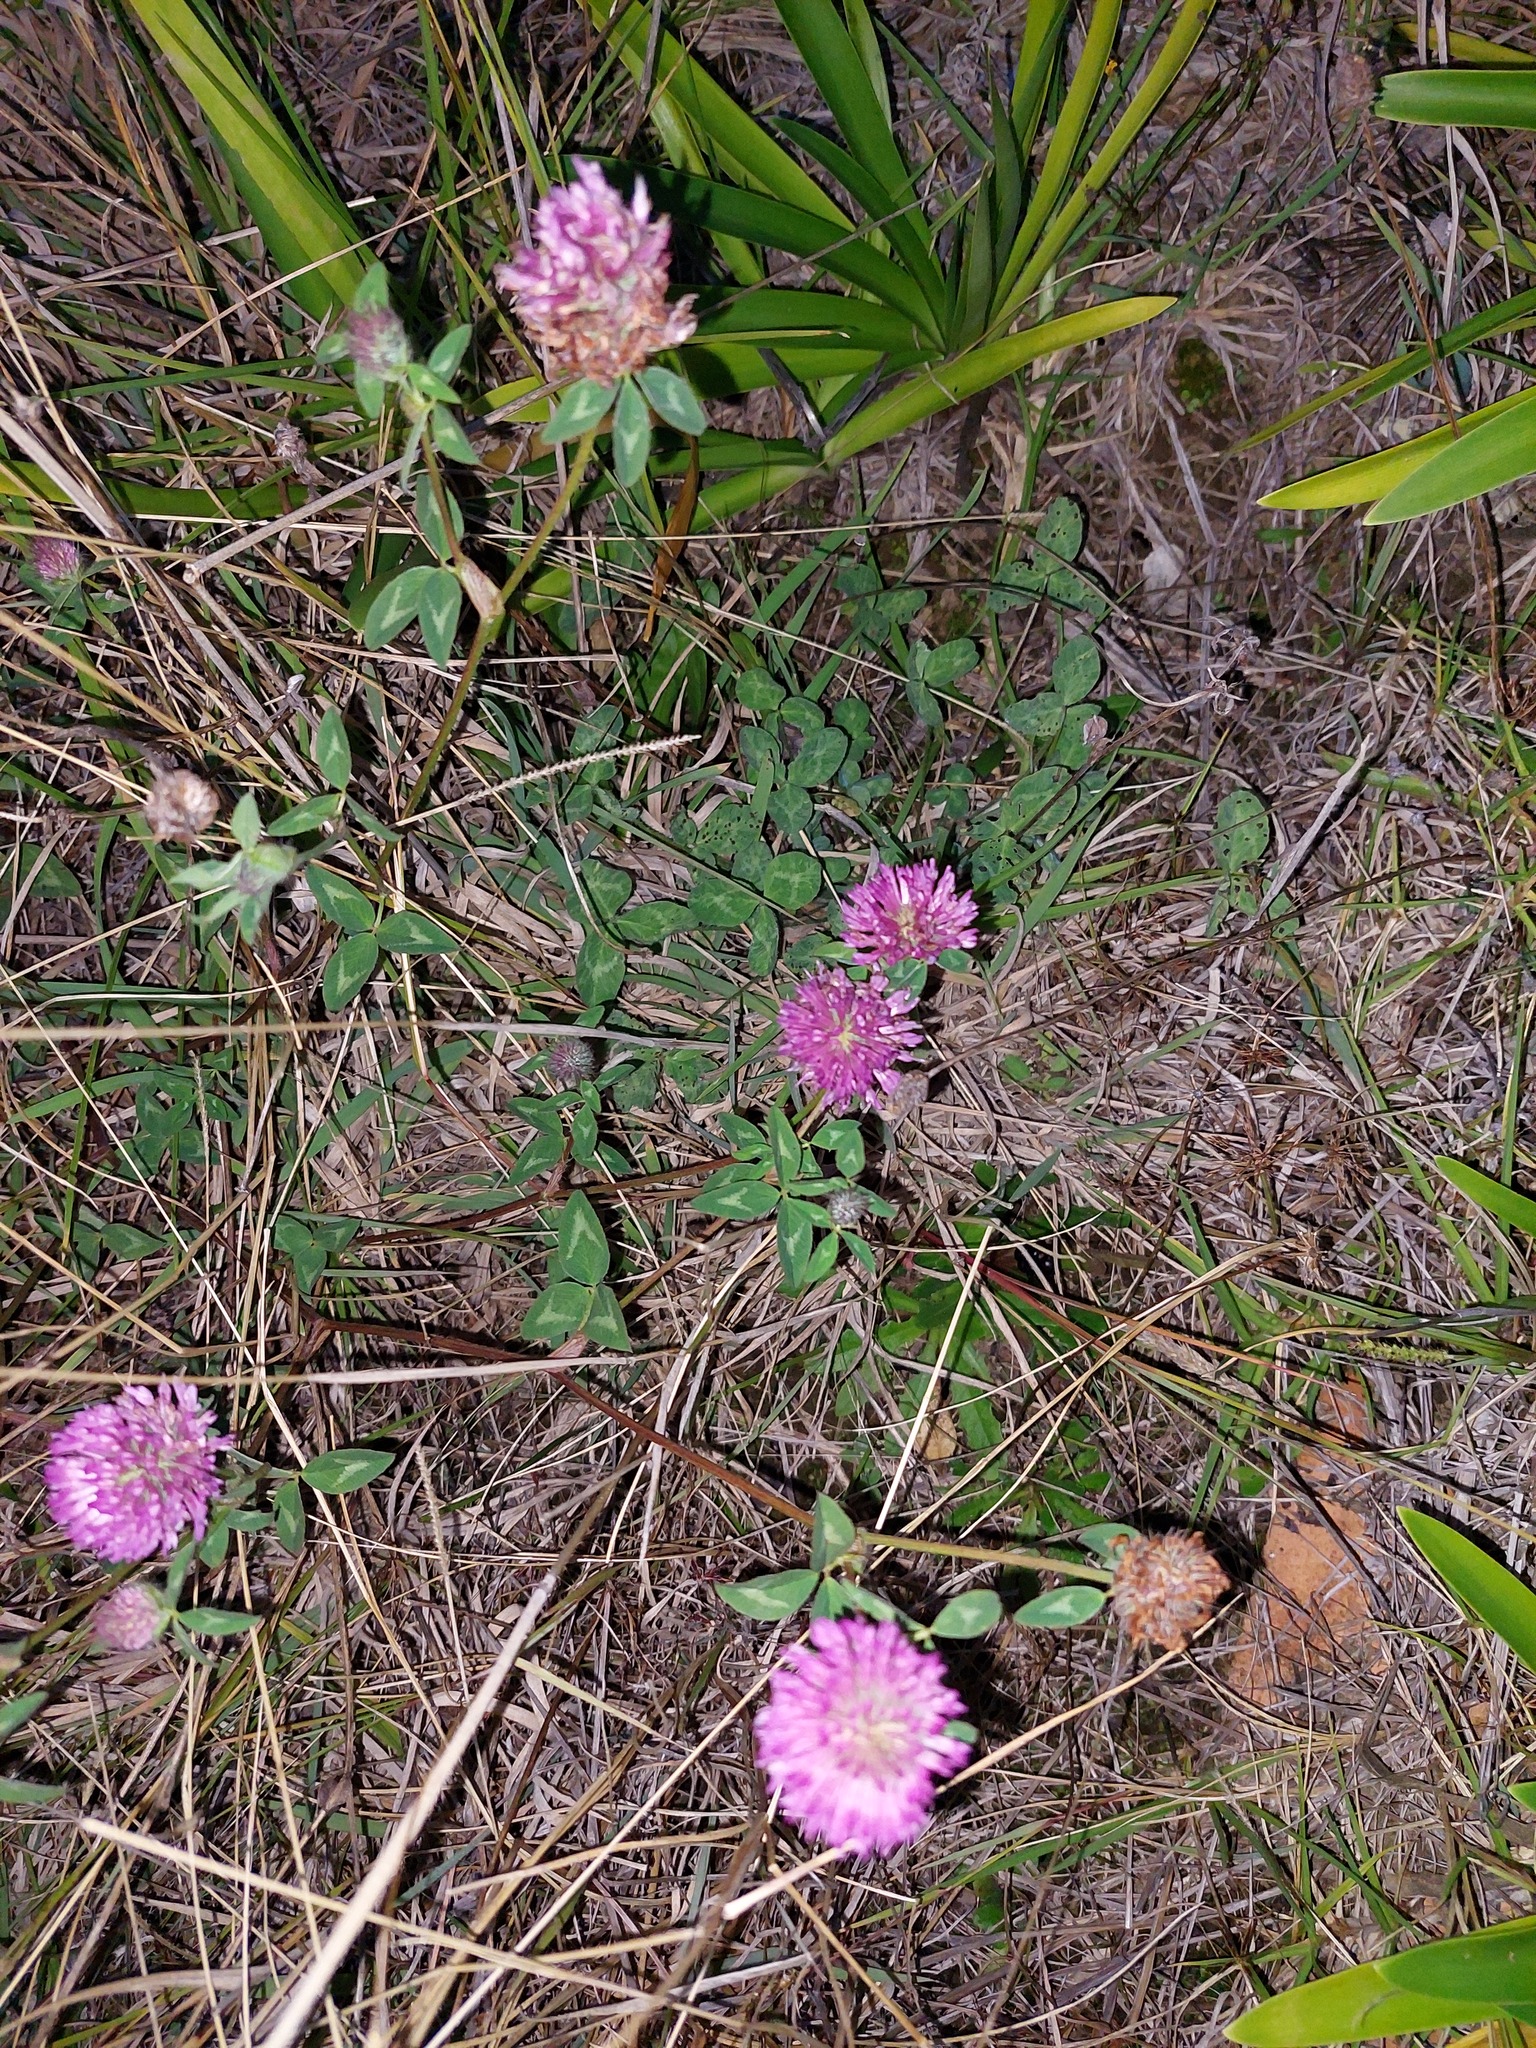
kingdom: Plantae
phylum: Tracheophyta
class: Magnoliopsida
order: Fabales
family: Fabaceae
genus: Trifolium
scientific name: Trifolium pratense
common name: Red clover
